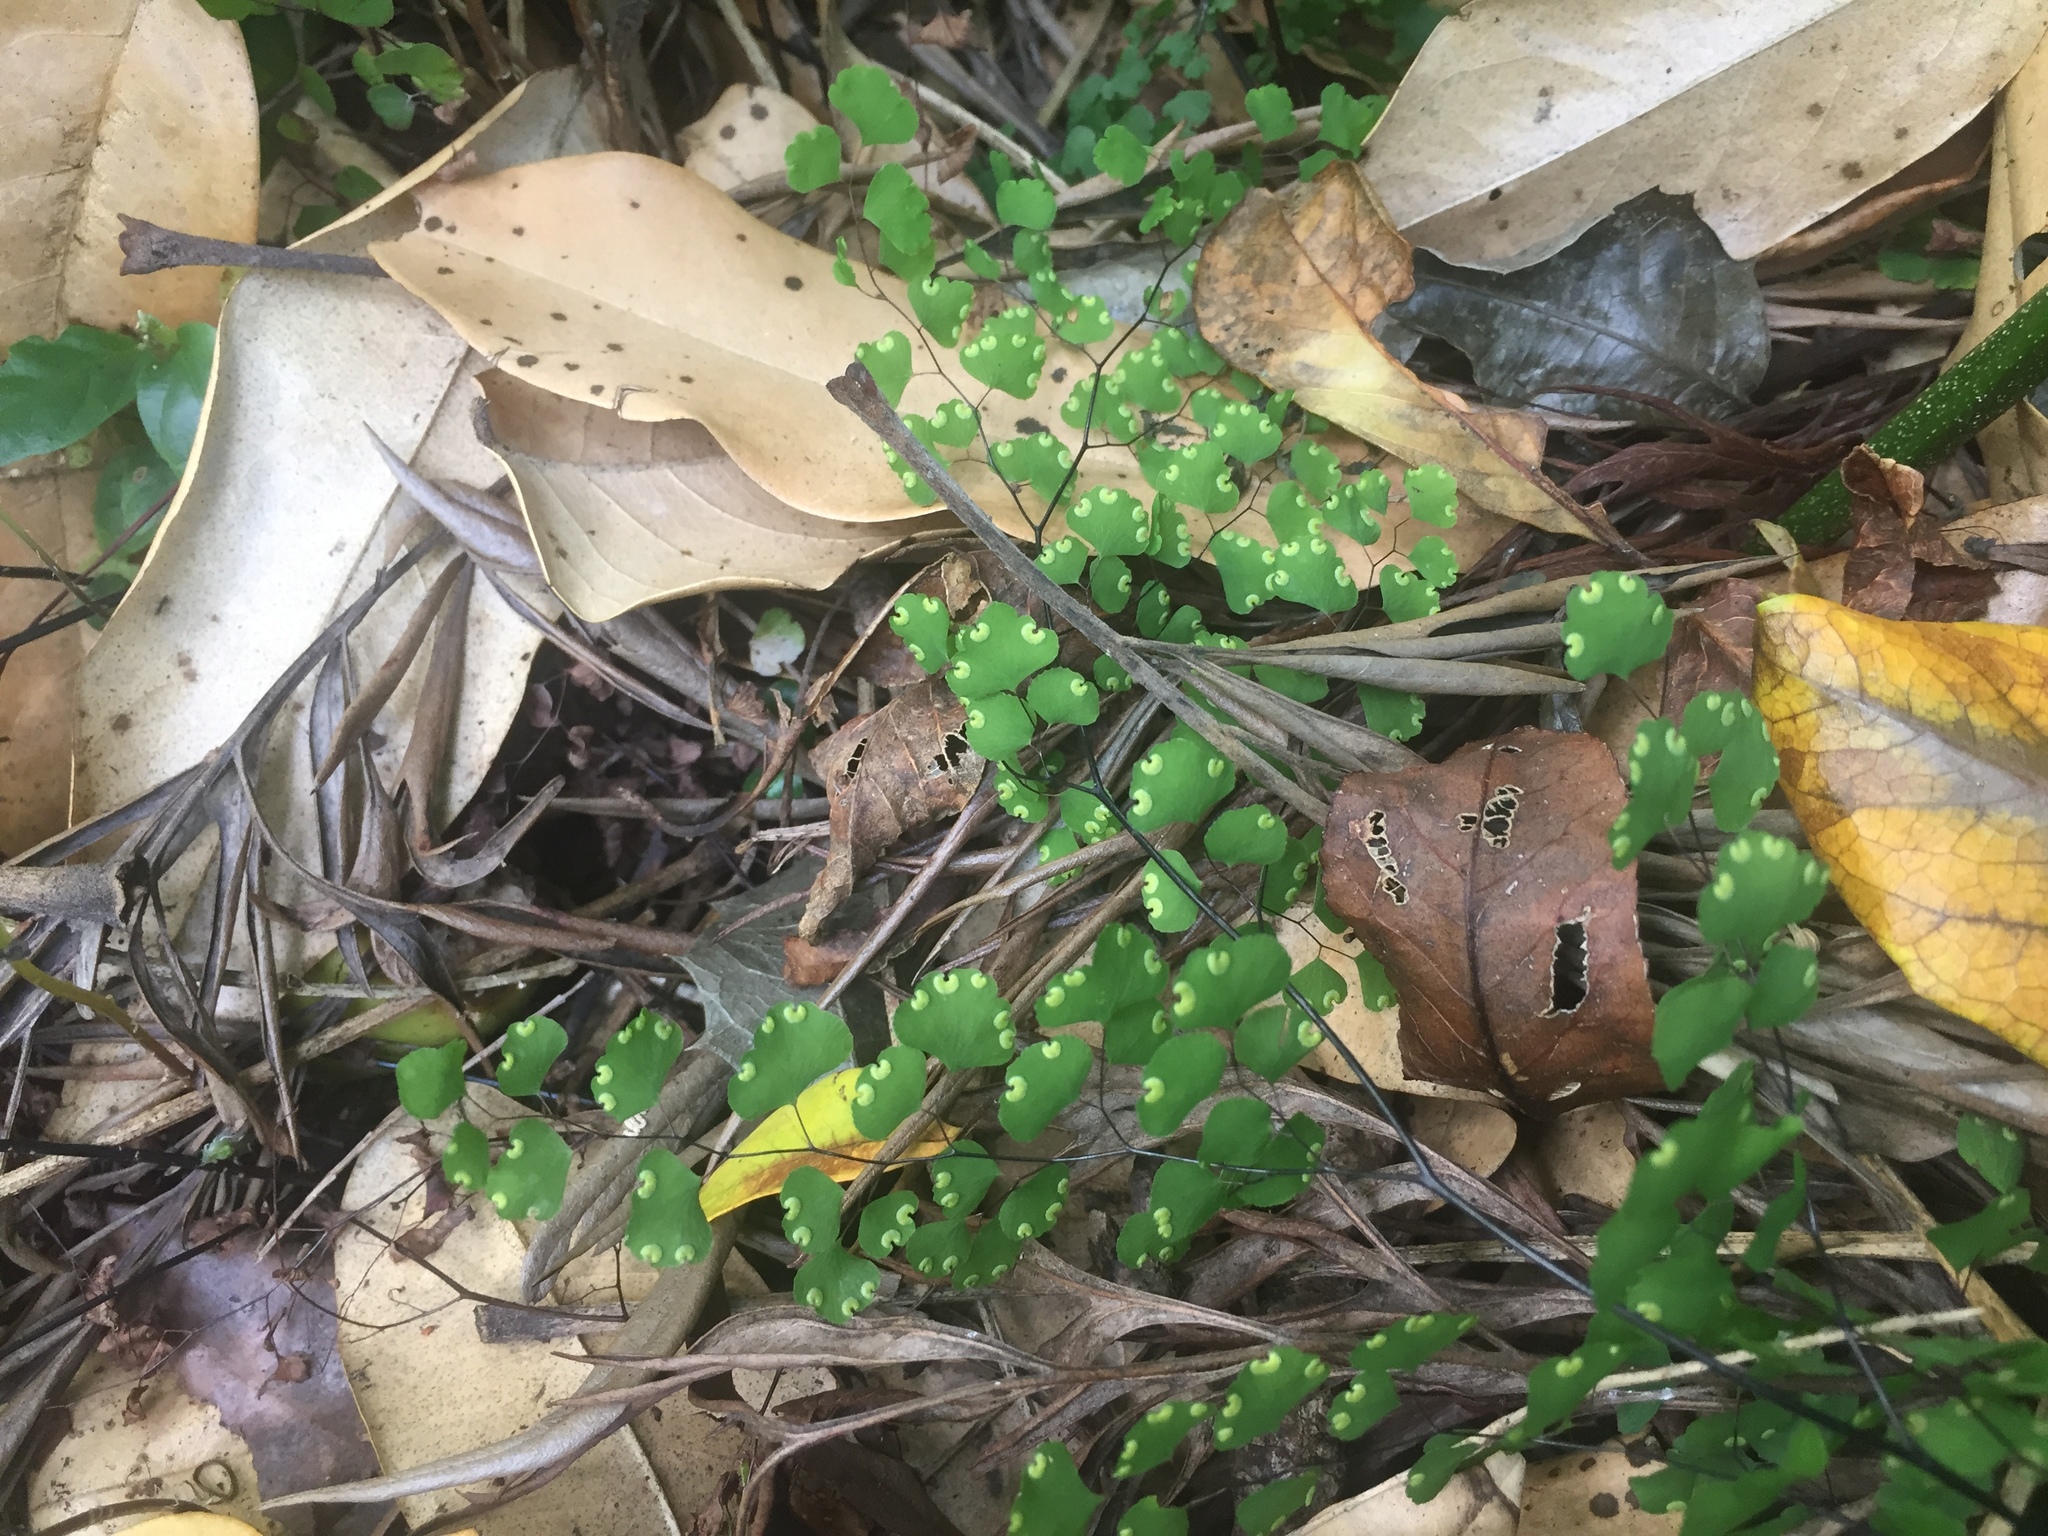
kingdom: Plantae
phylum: Tracheophyta
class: Polypodiopsida
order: Polypodiales
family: Pteridaceae
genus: Adiantum
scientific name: Adiantum atroviride
